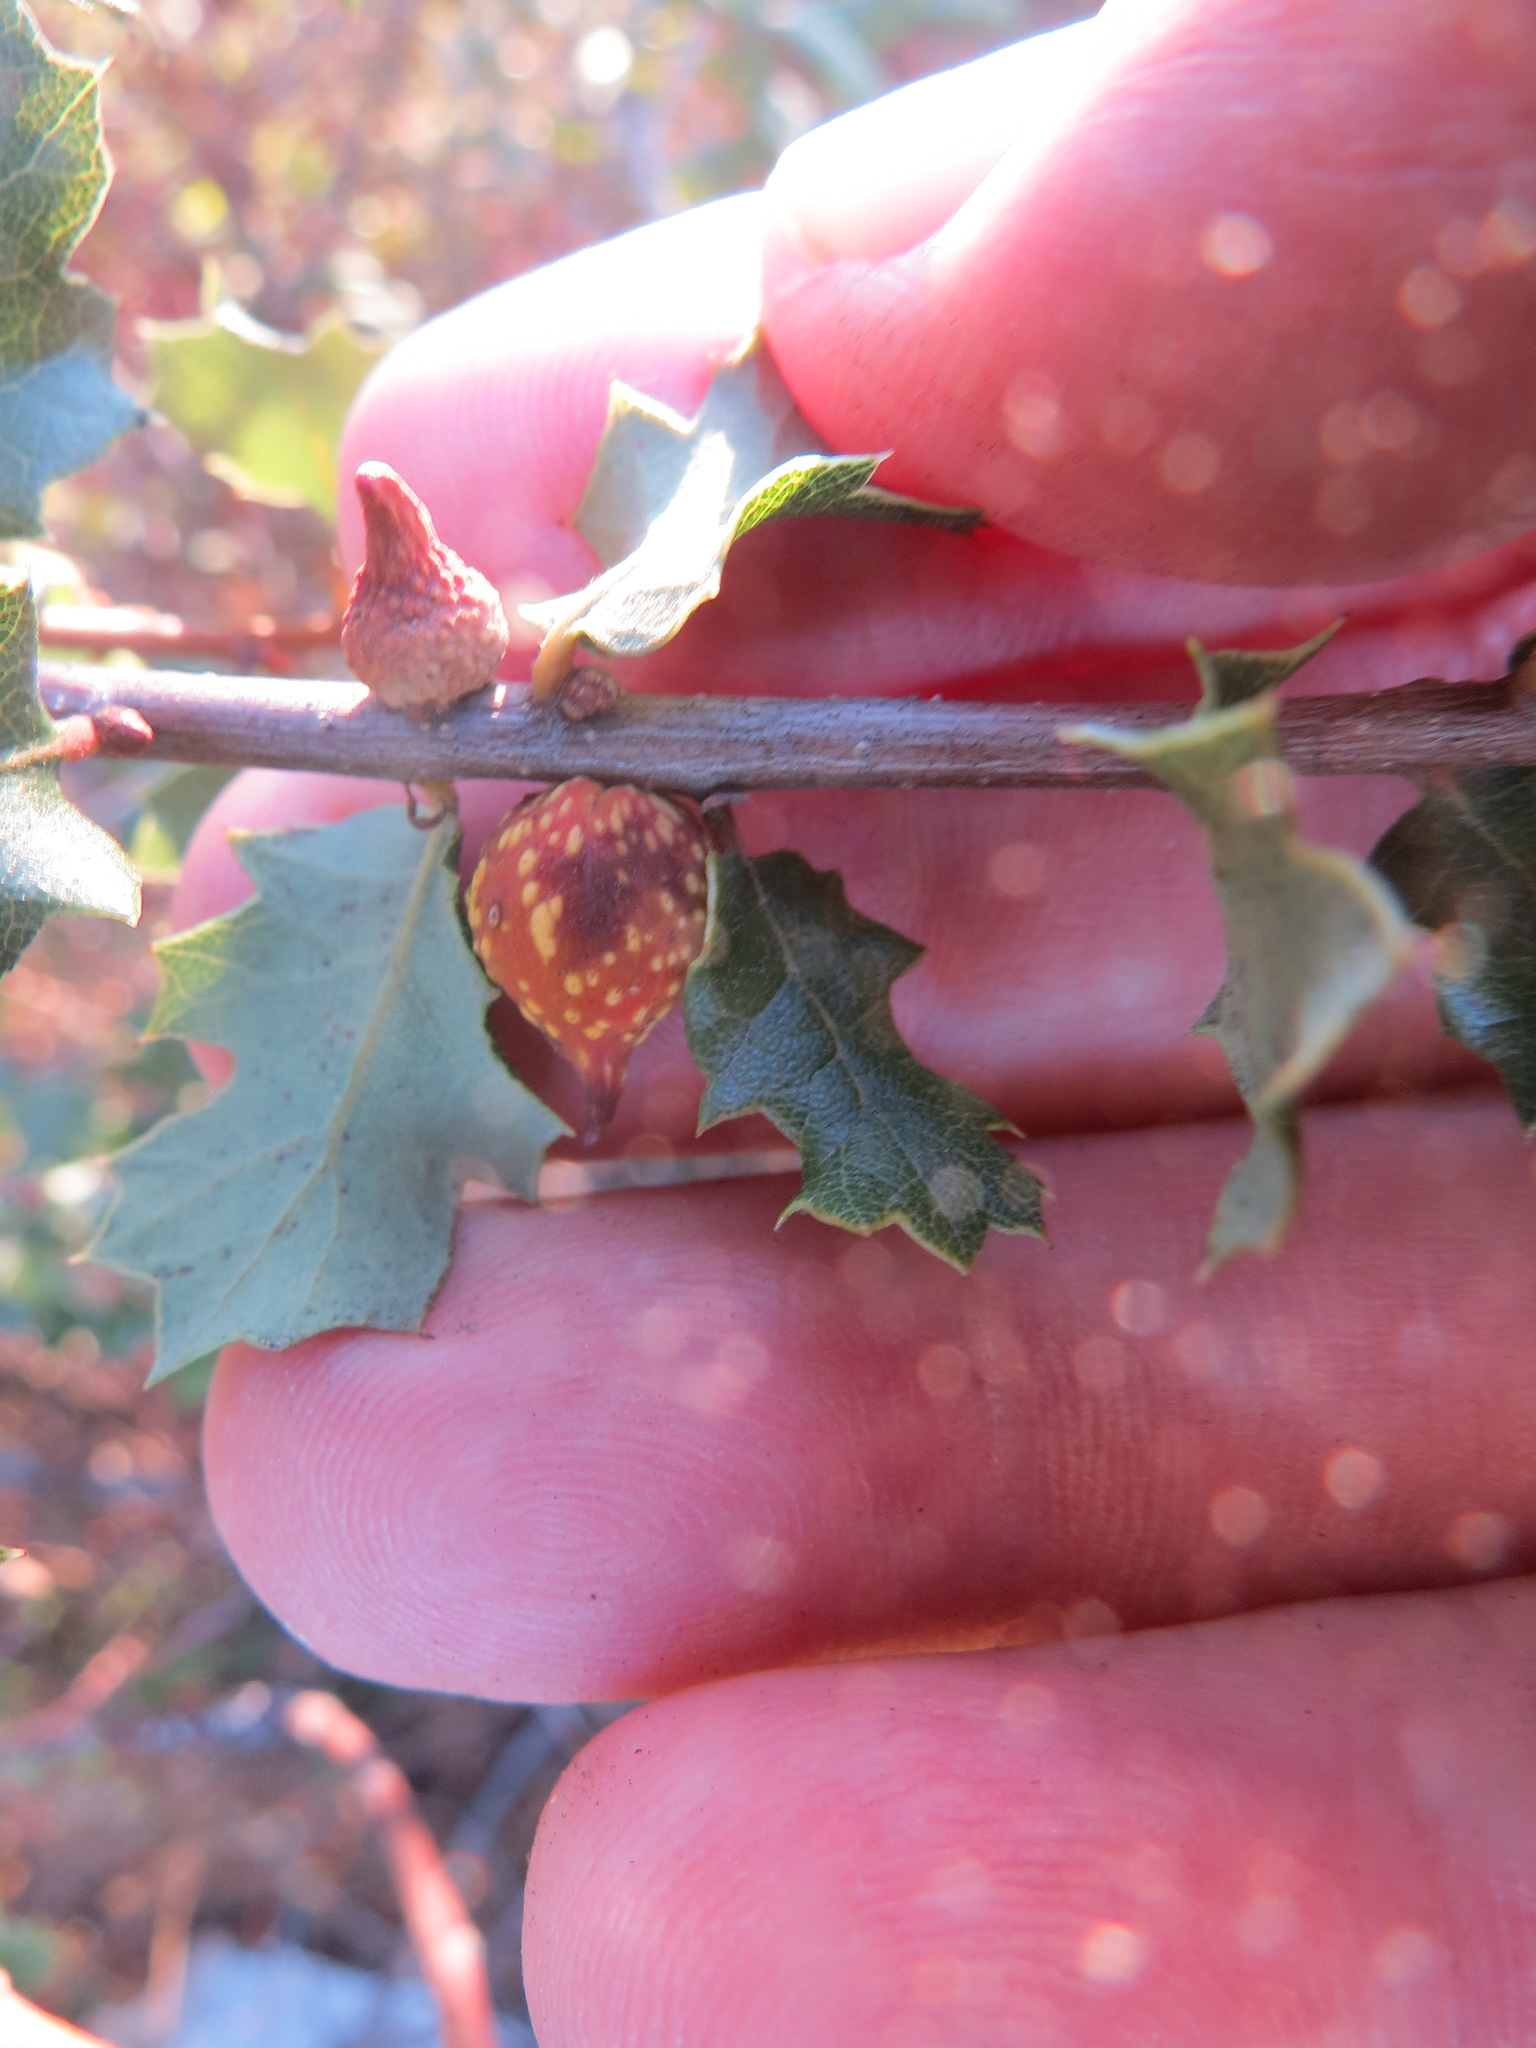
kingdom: Animalia
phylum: Arthropoda
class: Insecta
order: Hymenoptera
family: Cynipidae
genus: Burnettweldia
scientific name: Burnettweldia
